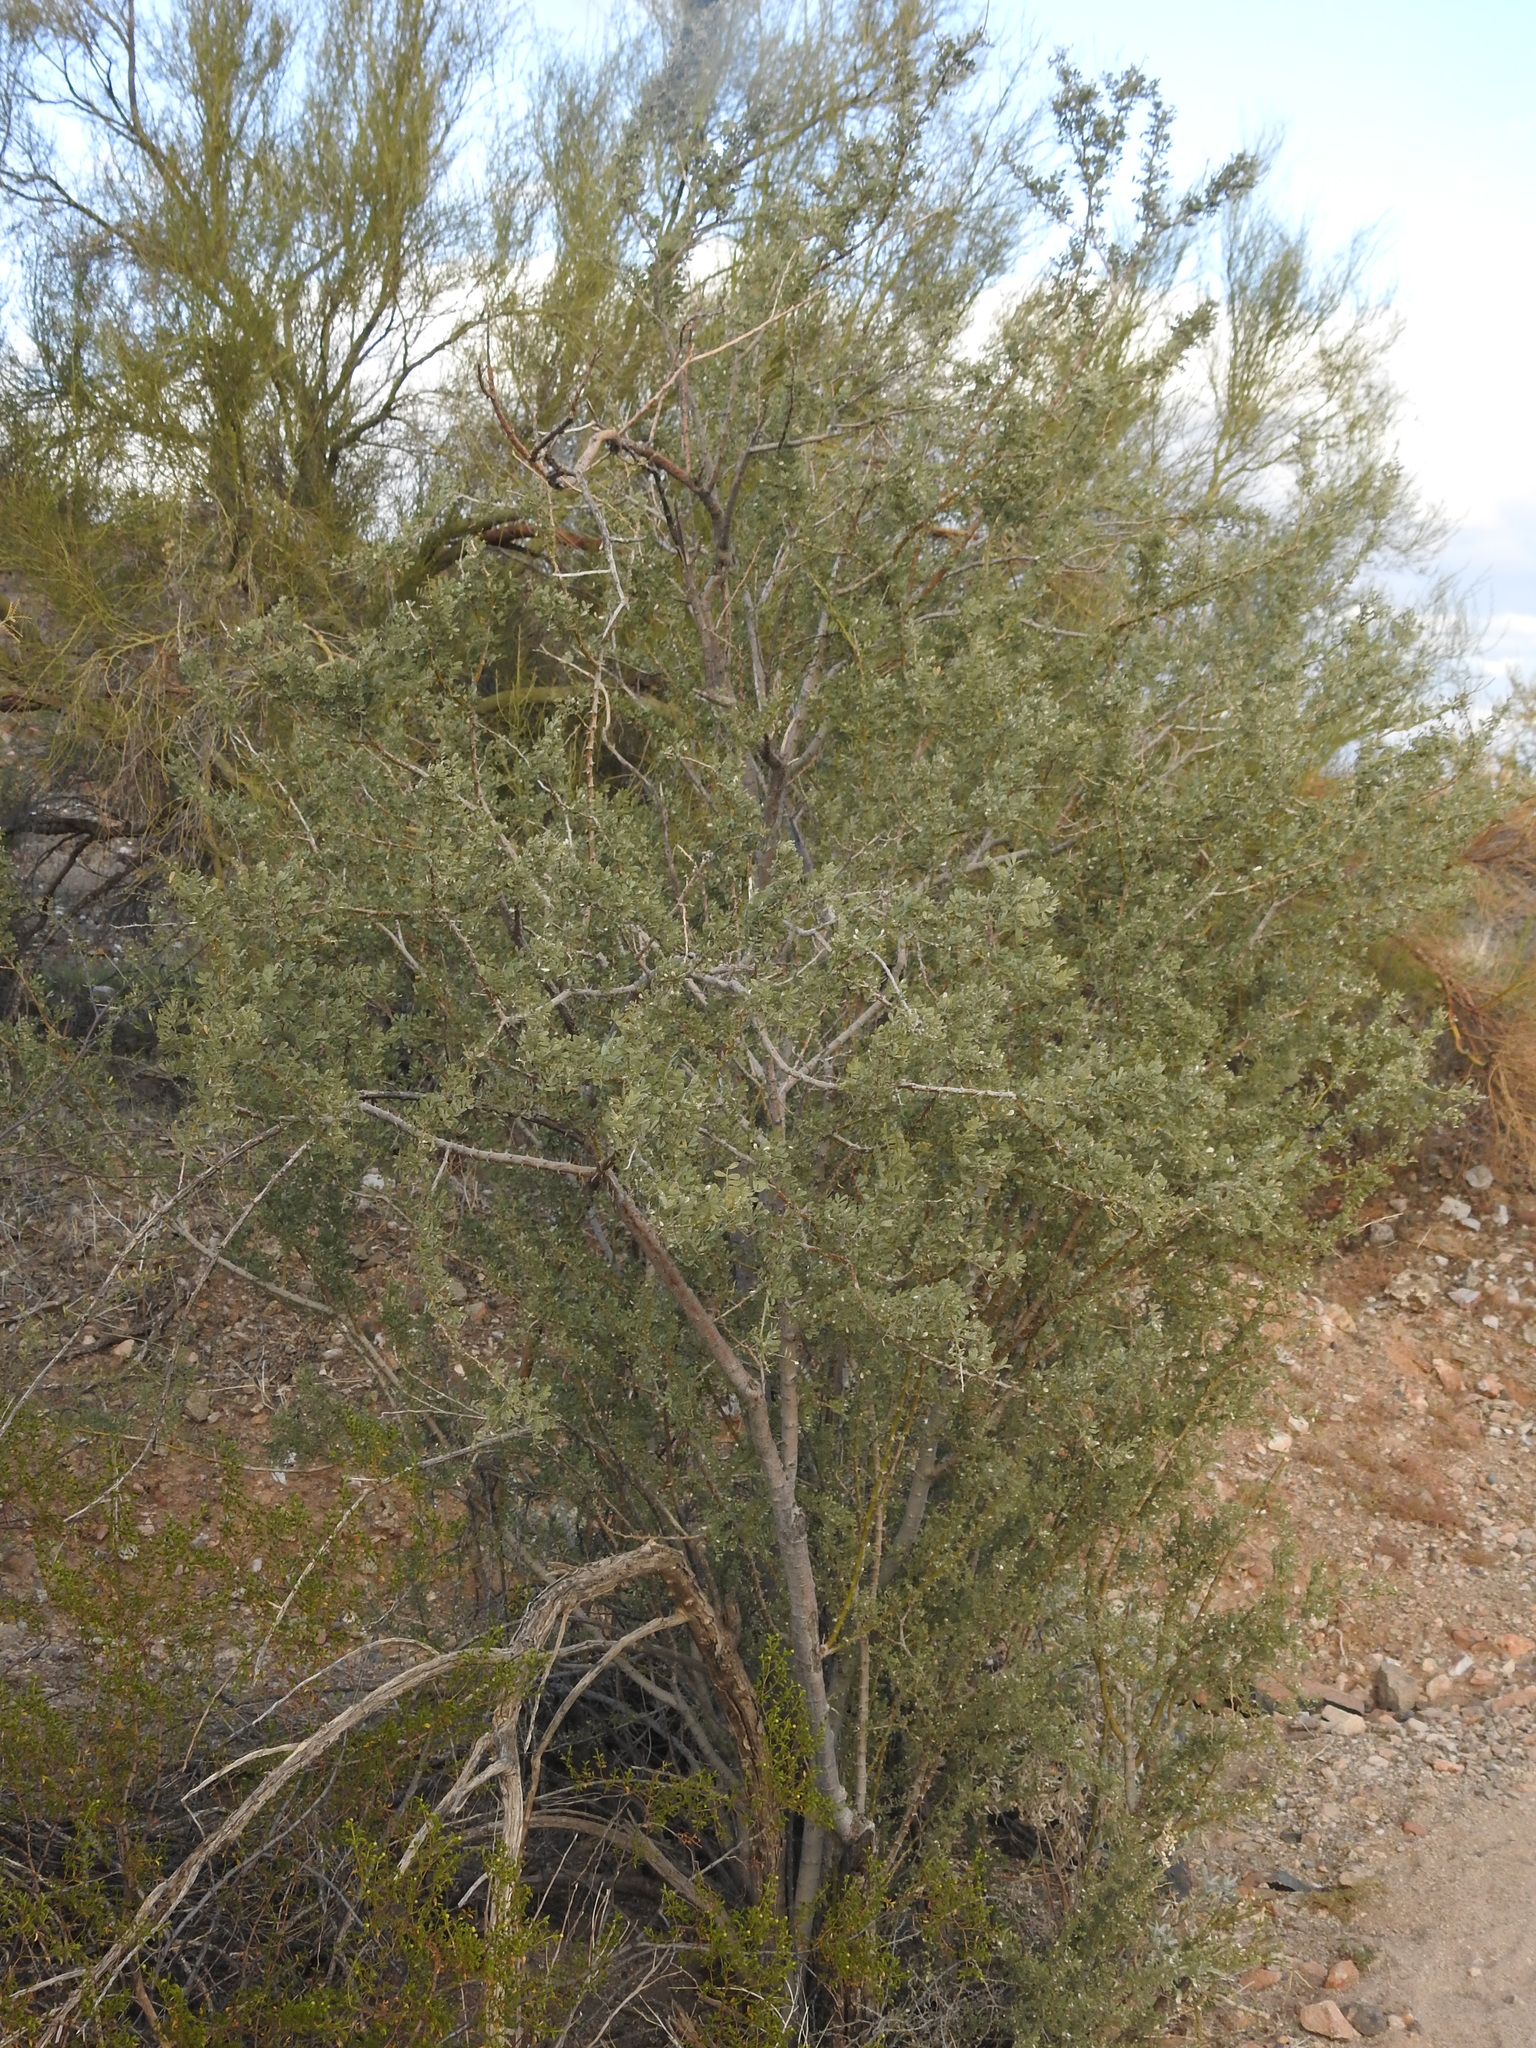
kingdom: Plantae
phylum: Tracheophyta
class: Magnoliopsida
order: Fabales
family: Fabaceae
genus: Olneya
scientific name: Olneya tesota
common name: Desert ironwood
